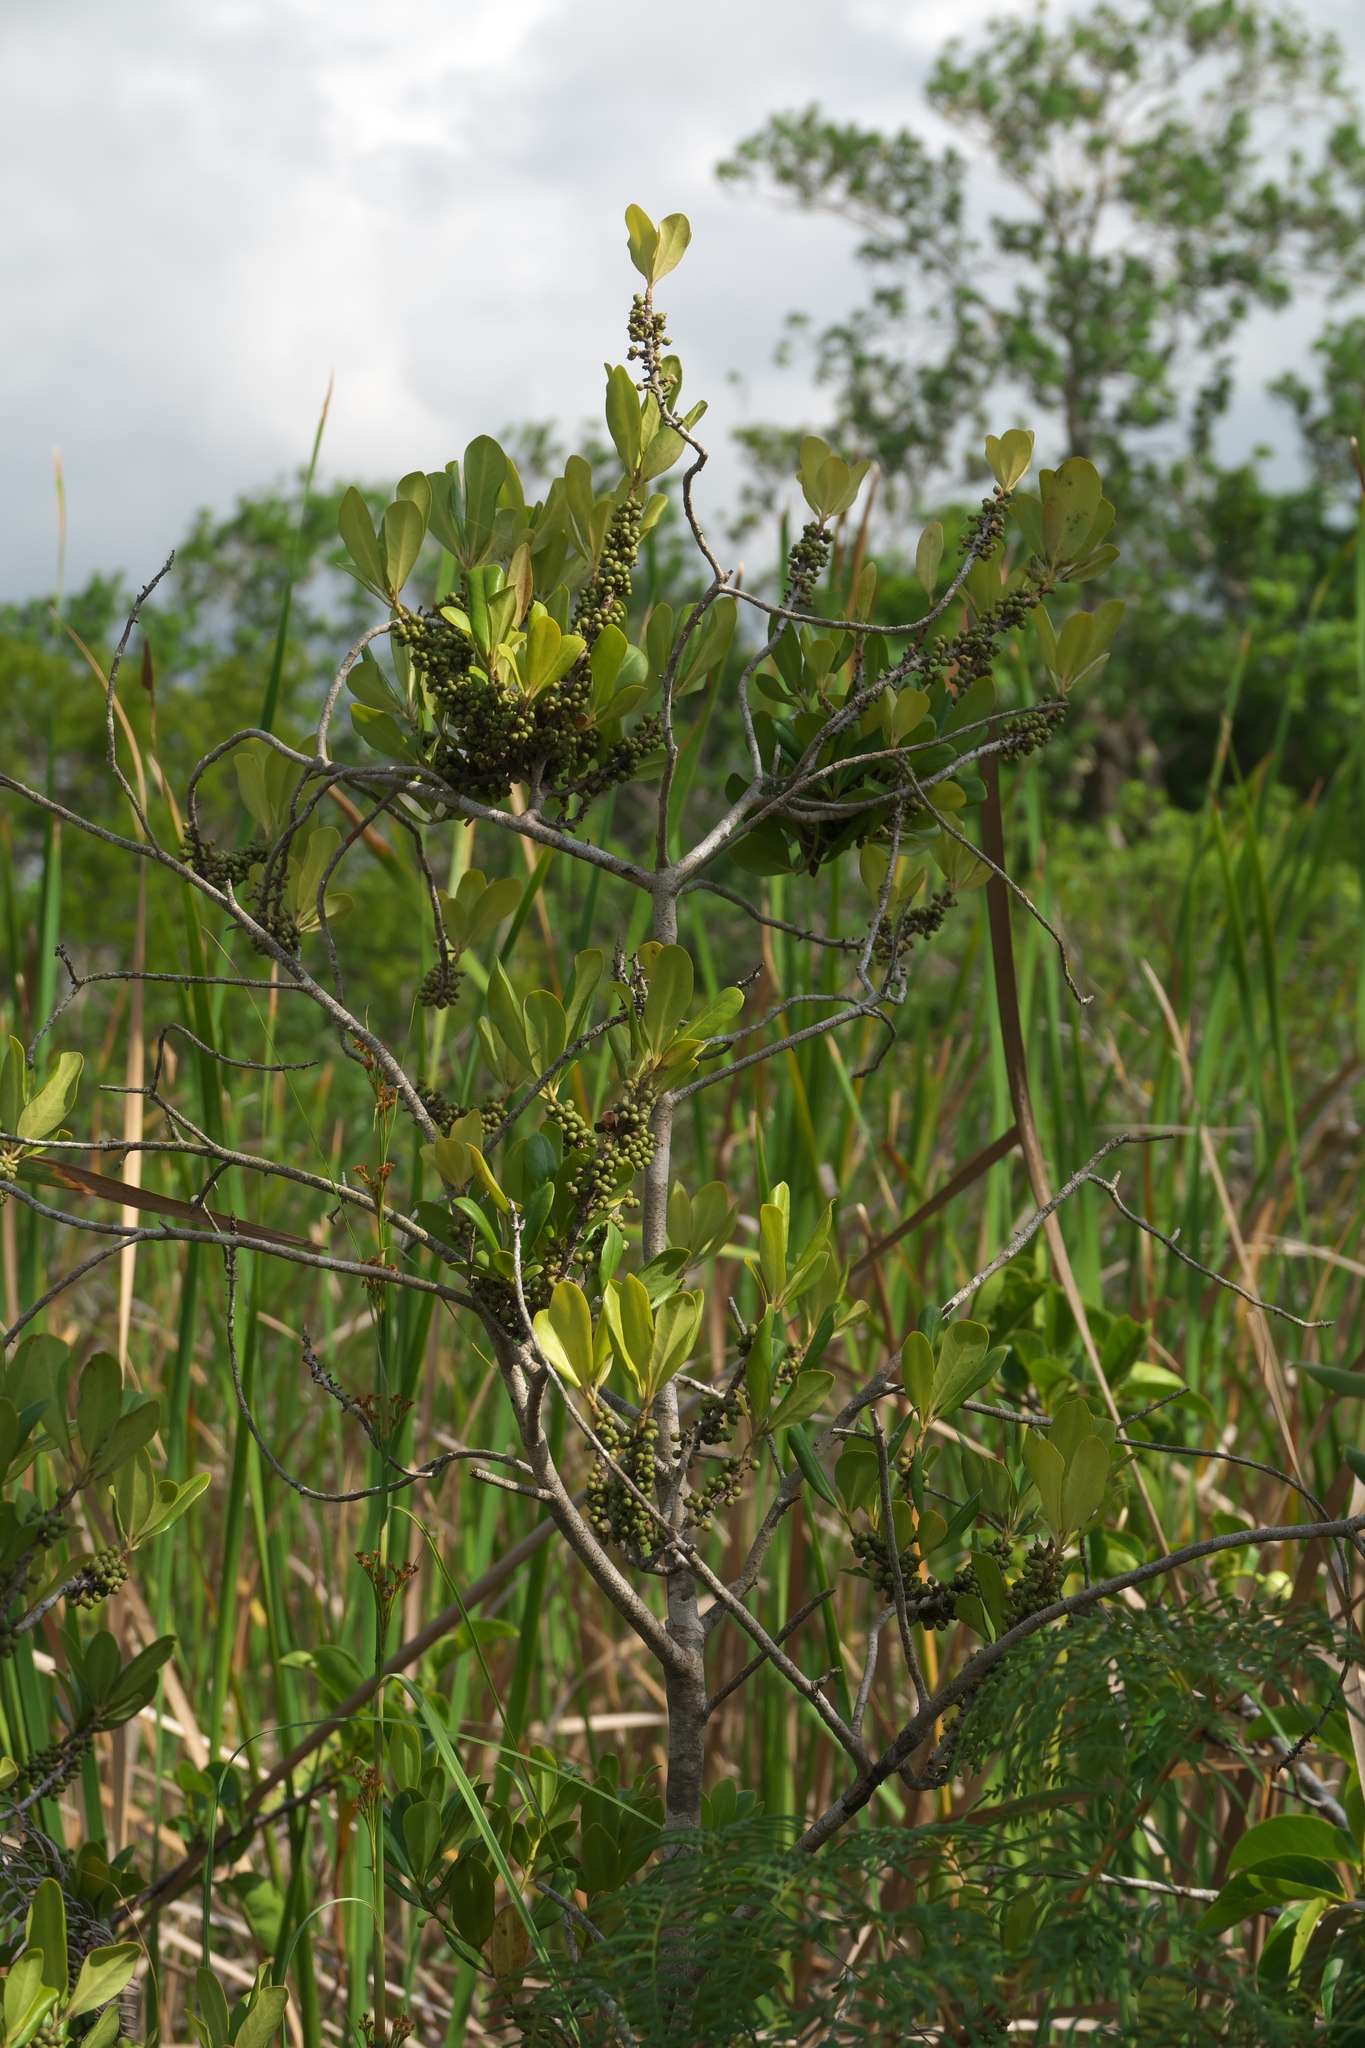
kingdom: Plantae
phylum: Tracheophyta
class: Magnoliopsida
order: Ericales
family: Primulaceae
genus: Myrsine
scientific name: Myrsine floridana
